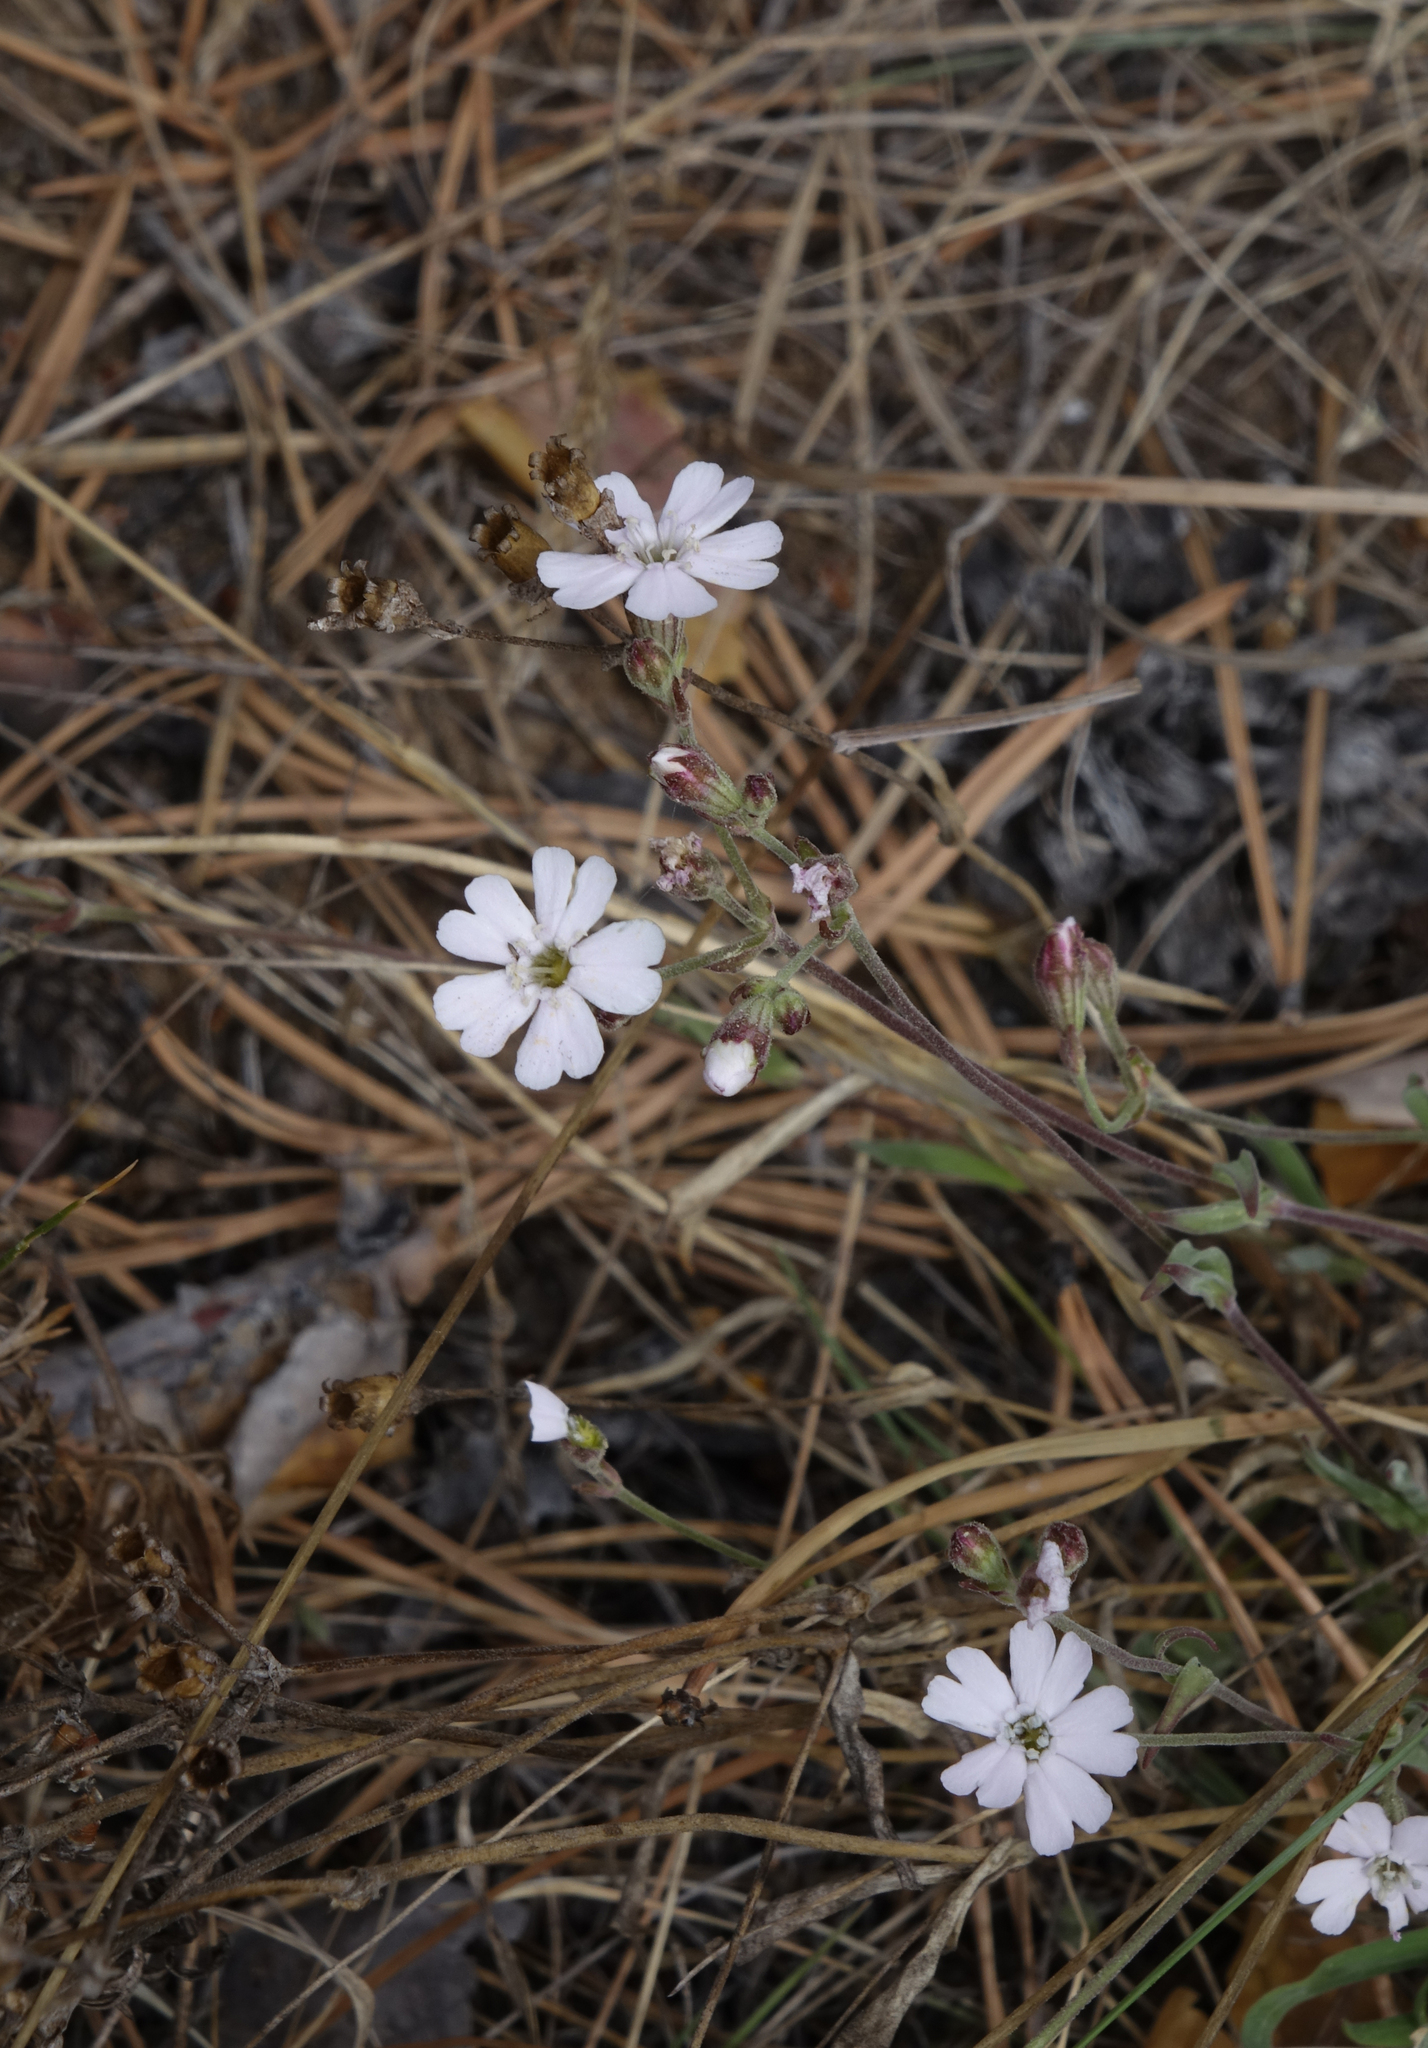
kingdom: Plantae
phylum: Tracheophyta
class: Magnoliopsida
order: Caryophyllales
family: Caryophyllaceae
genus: Silene
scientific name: Silene orientalimongolica
